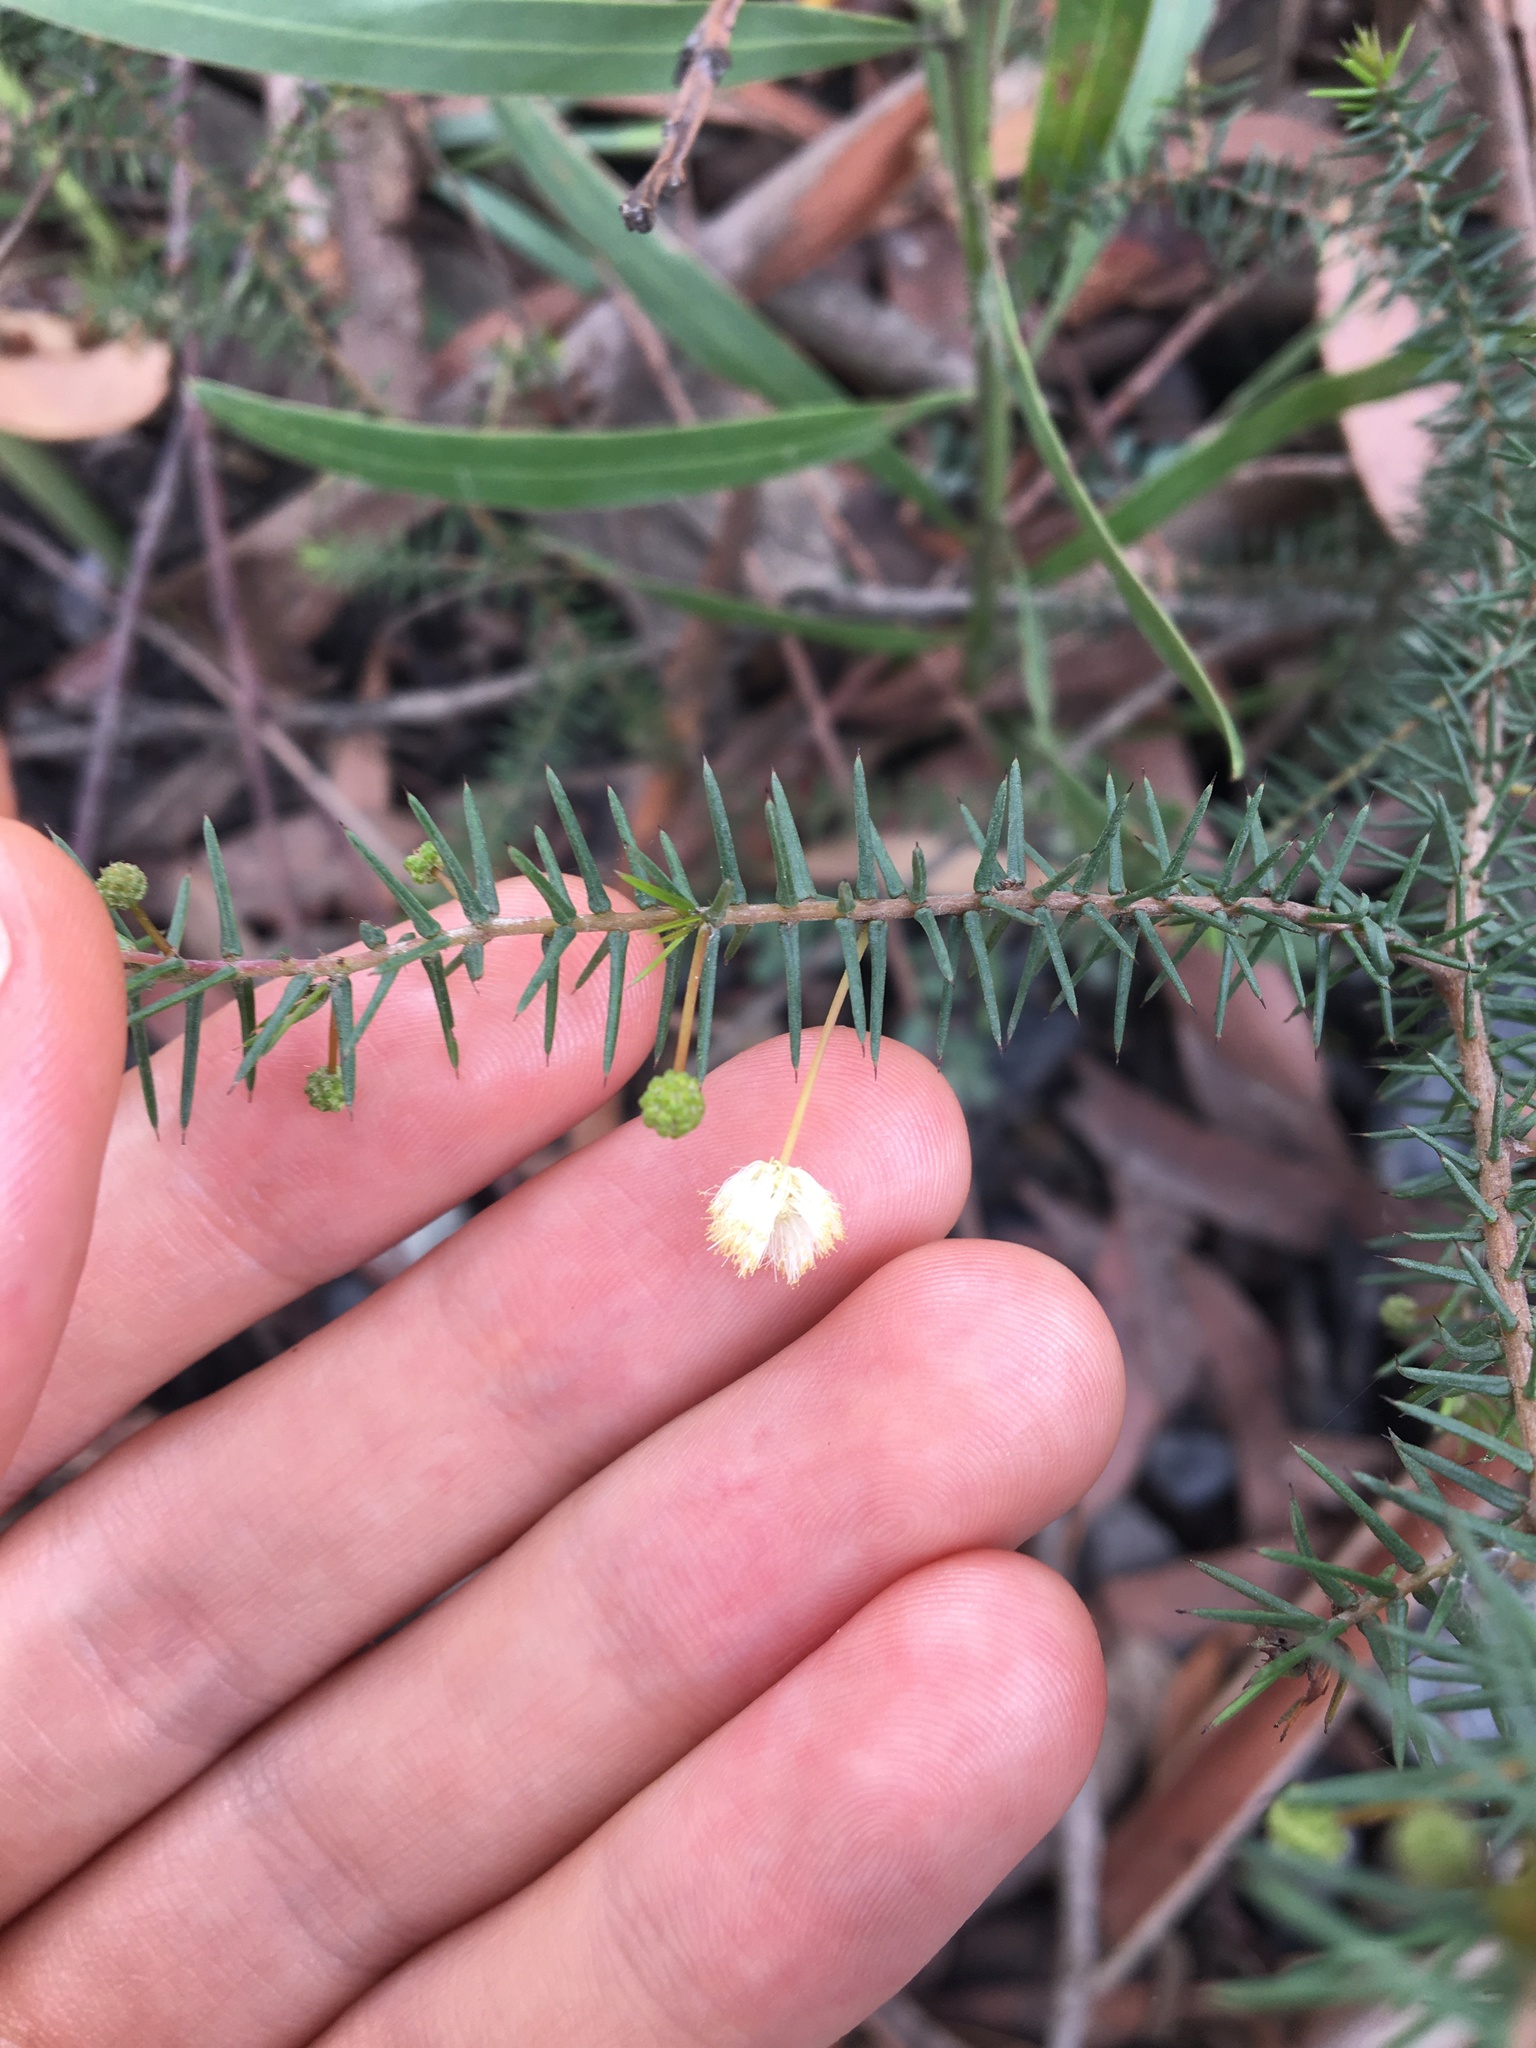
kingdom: Plantae
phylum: Tracheophyta
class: Magnoliopsida
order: Fabales
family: Fabaceae
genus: Acacia
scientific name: Acacia ulicifolia
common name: Juniper wattle
